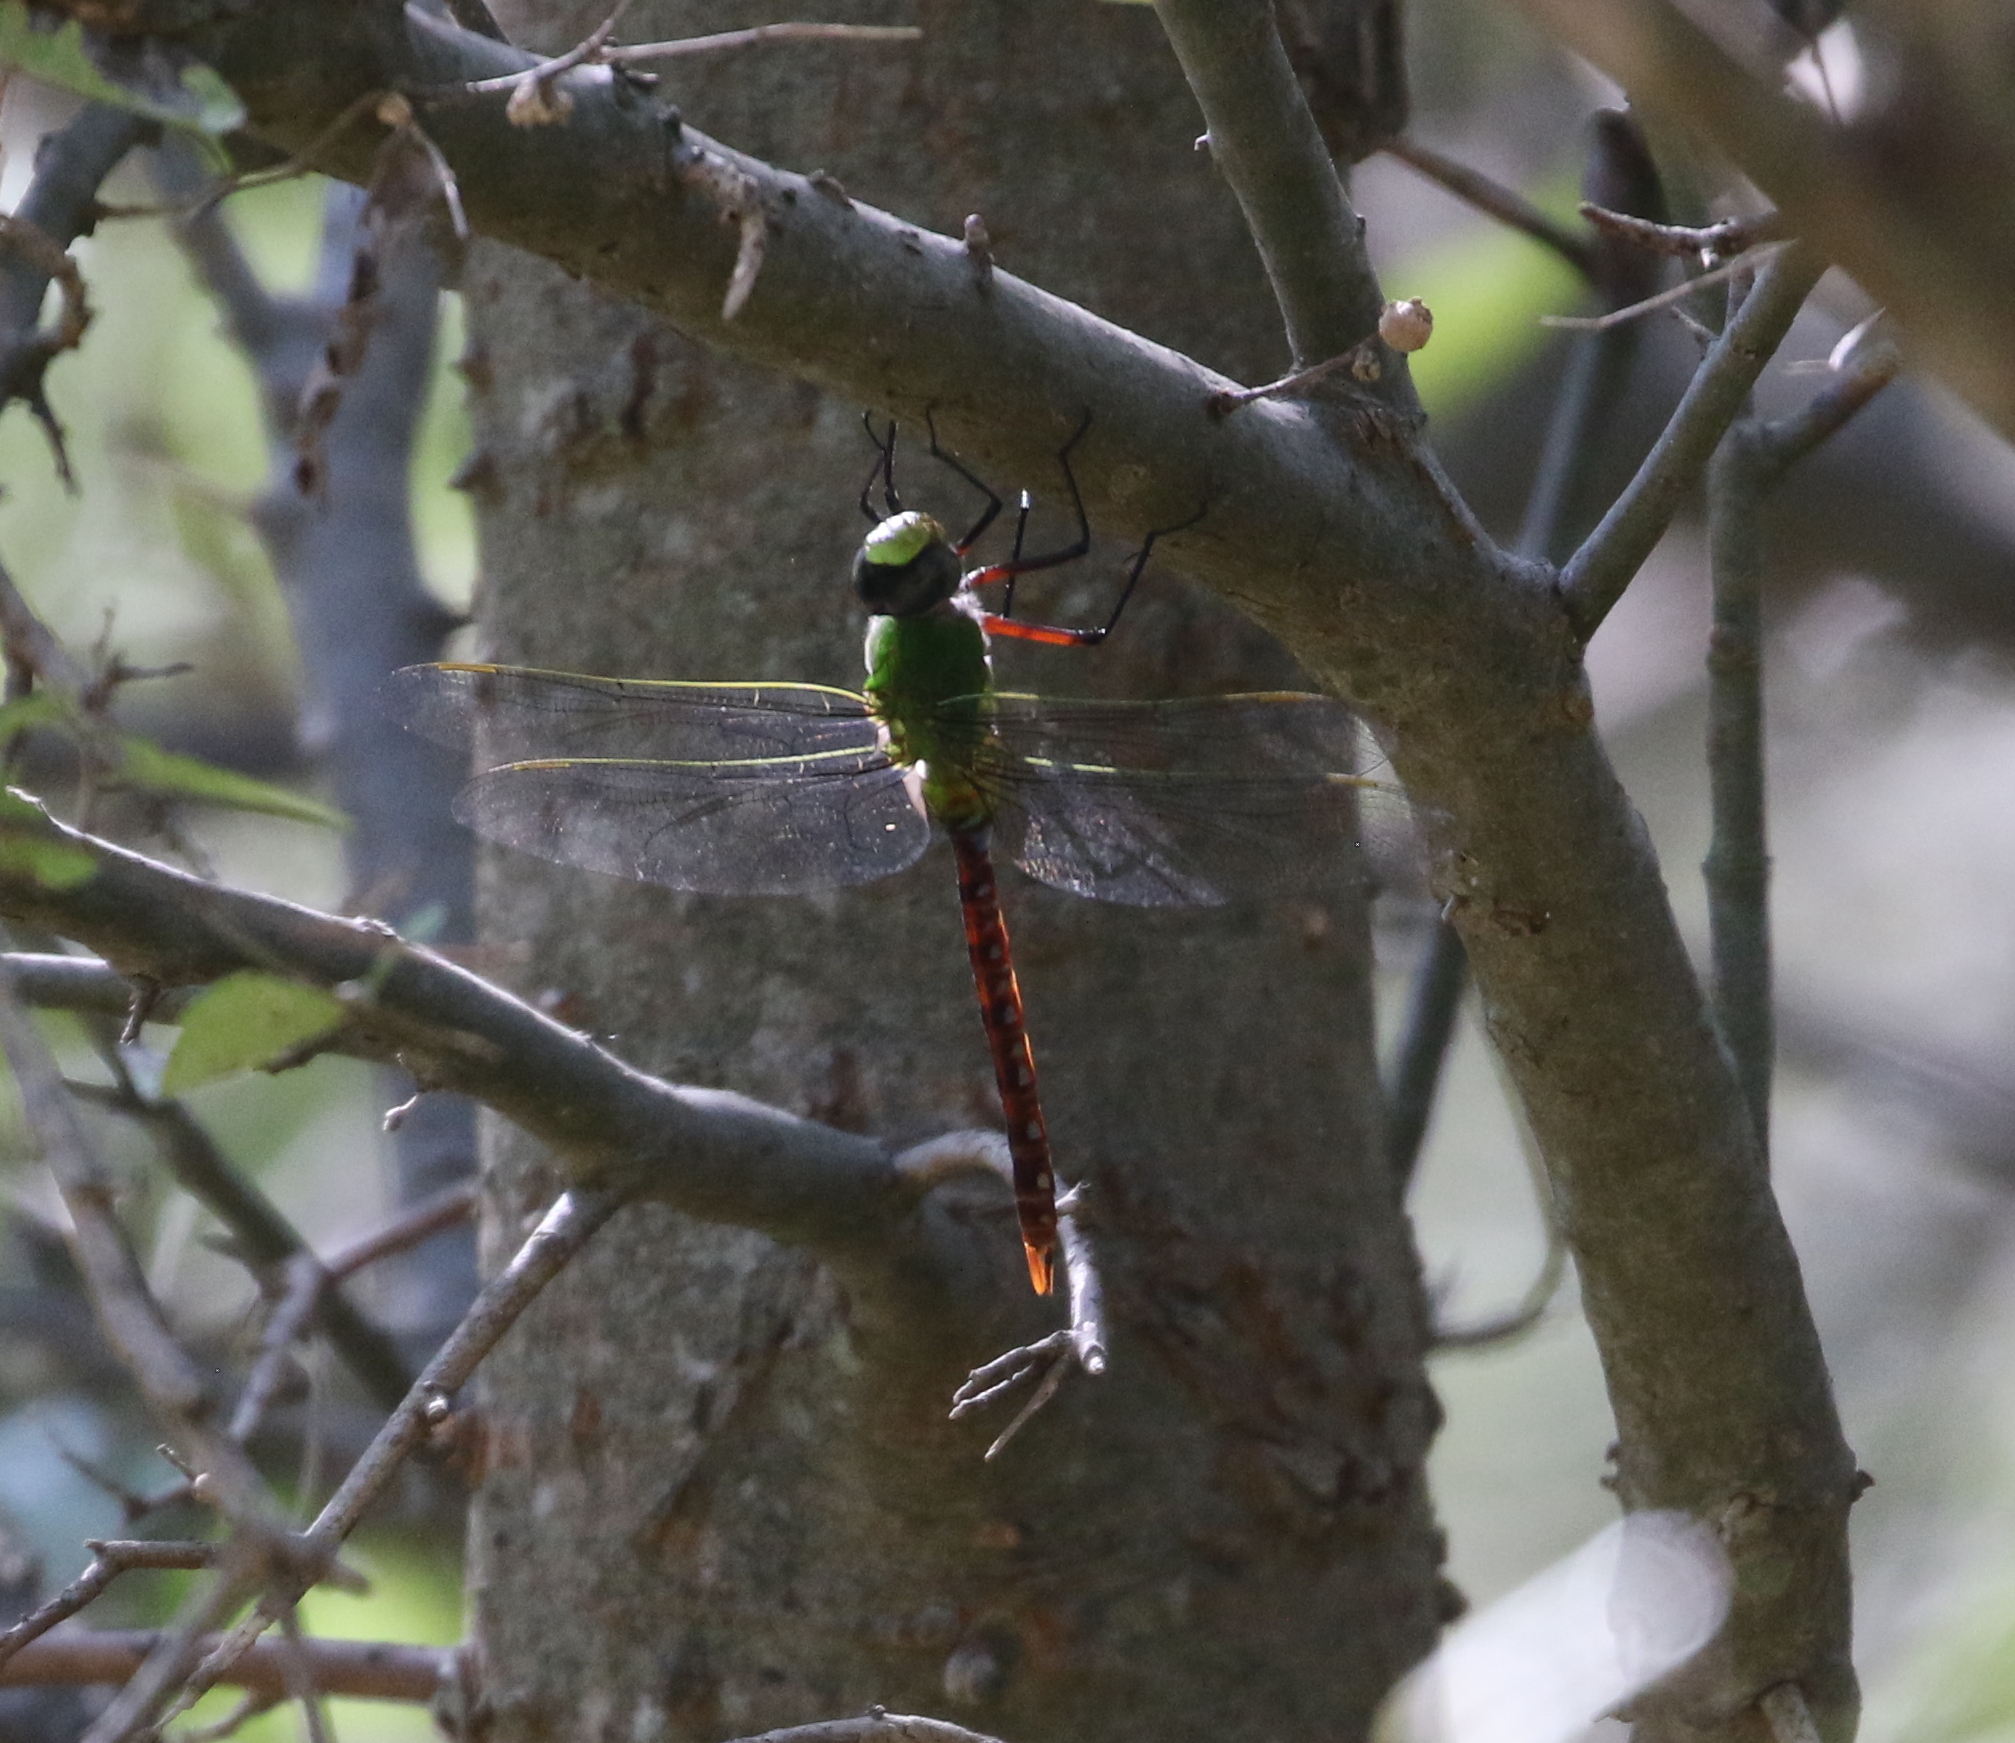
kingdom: Animalia
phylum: Arthropoda
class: Insecta
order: Odonata
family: Aeshnidae
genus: Anax
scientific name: Anax longipes
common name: Comet darner
